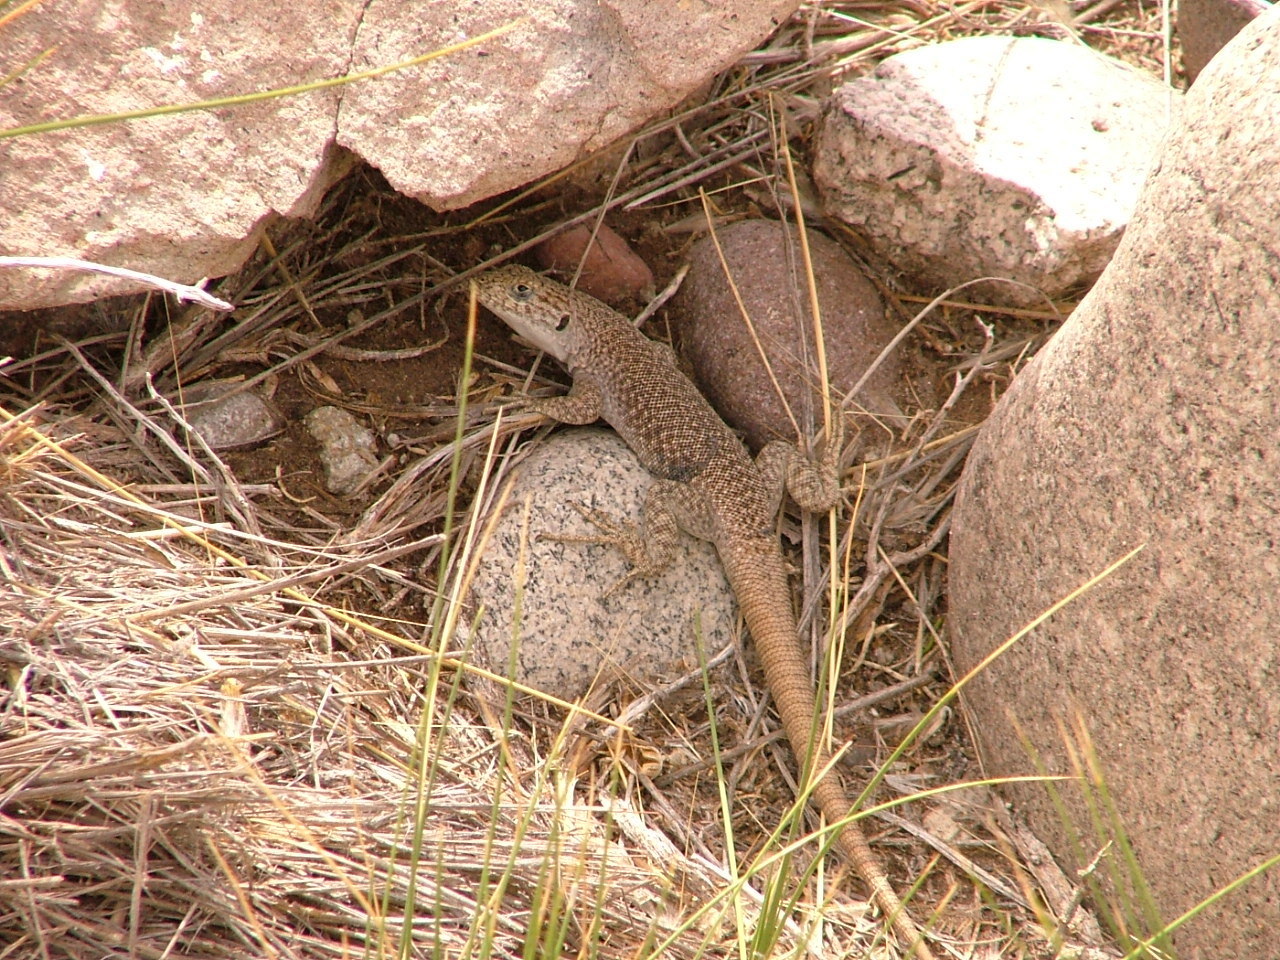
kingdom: Animalia
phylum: Chordata
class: Squamata
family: Liolaemidae
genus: Liolaemus
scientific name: Liolaemus austromendocinus
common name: Austromendocino tree iguana
